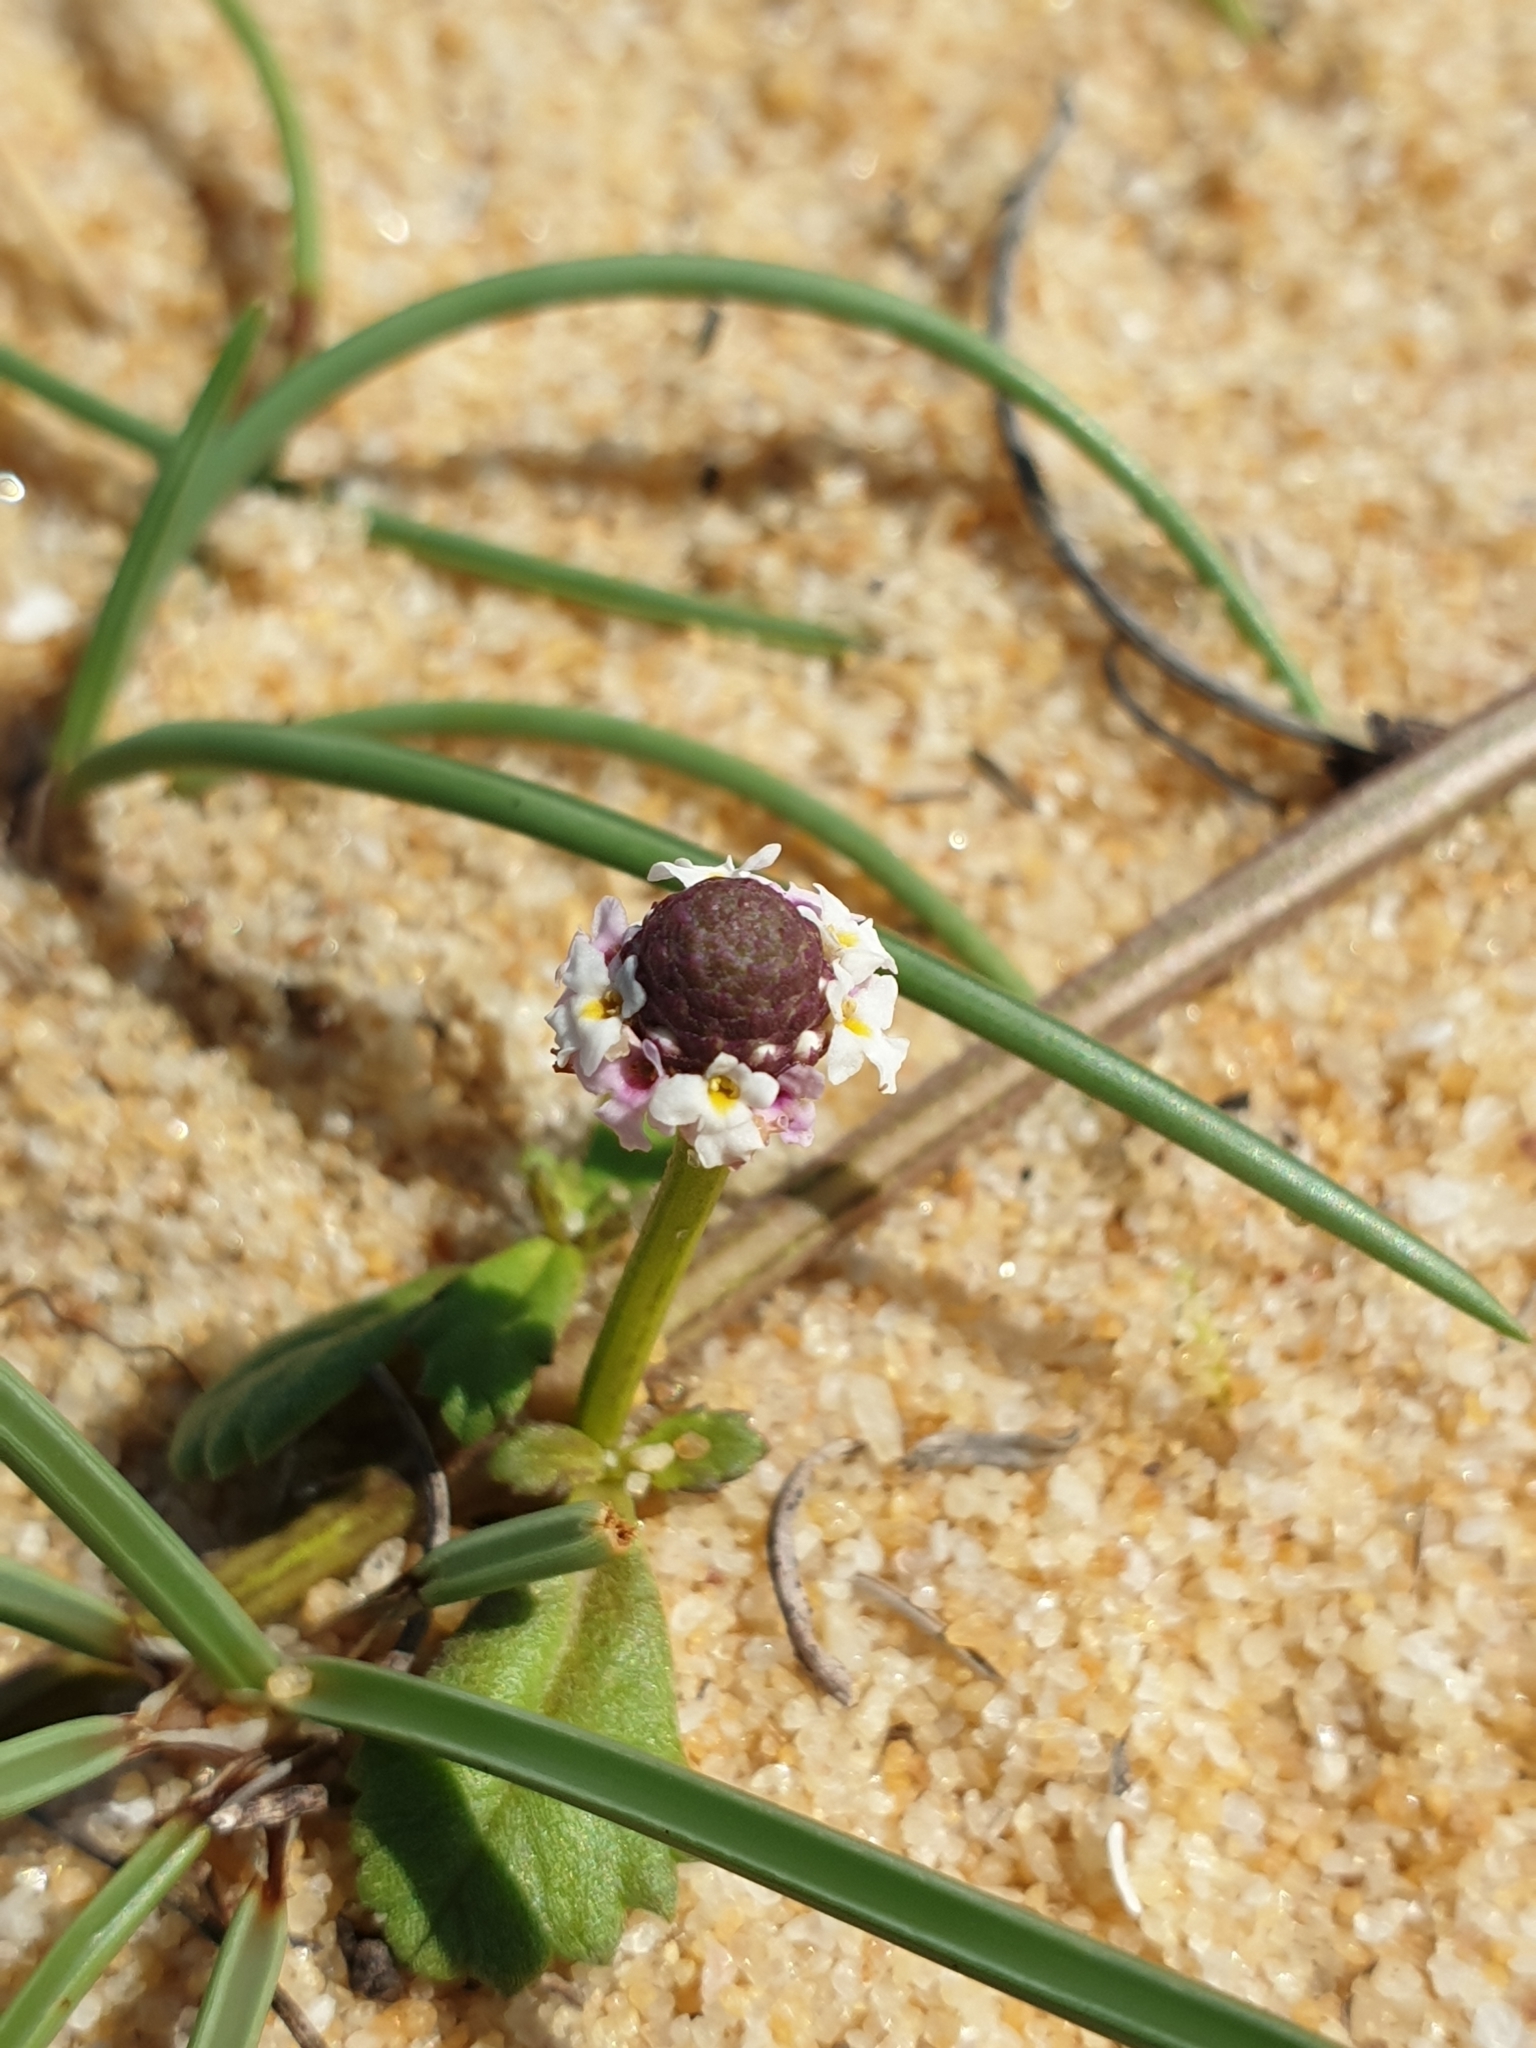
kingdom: Plantae
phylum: Tracheophyta
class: Magnoliopsida
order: Lamiales
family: Verbenaceae
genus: Phyla
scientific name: Phyla nodiflora
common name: Frogfruit
